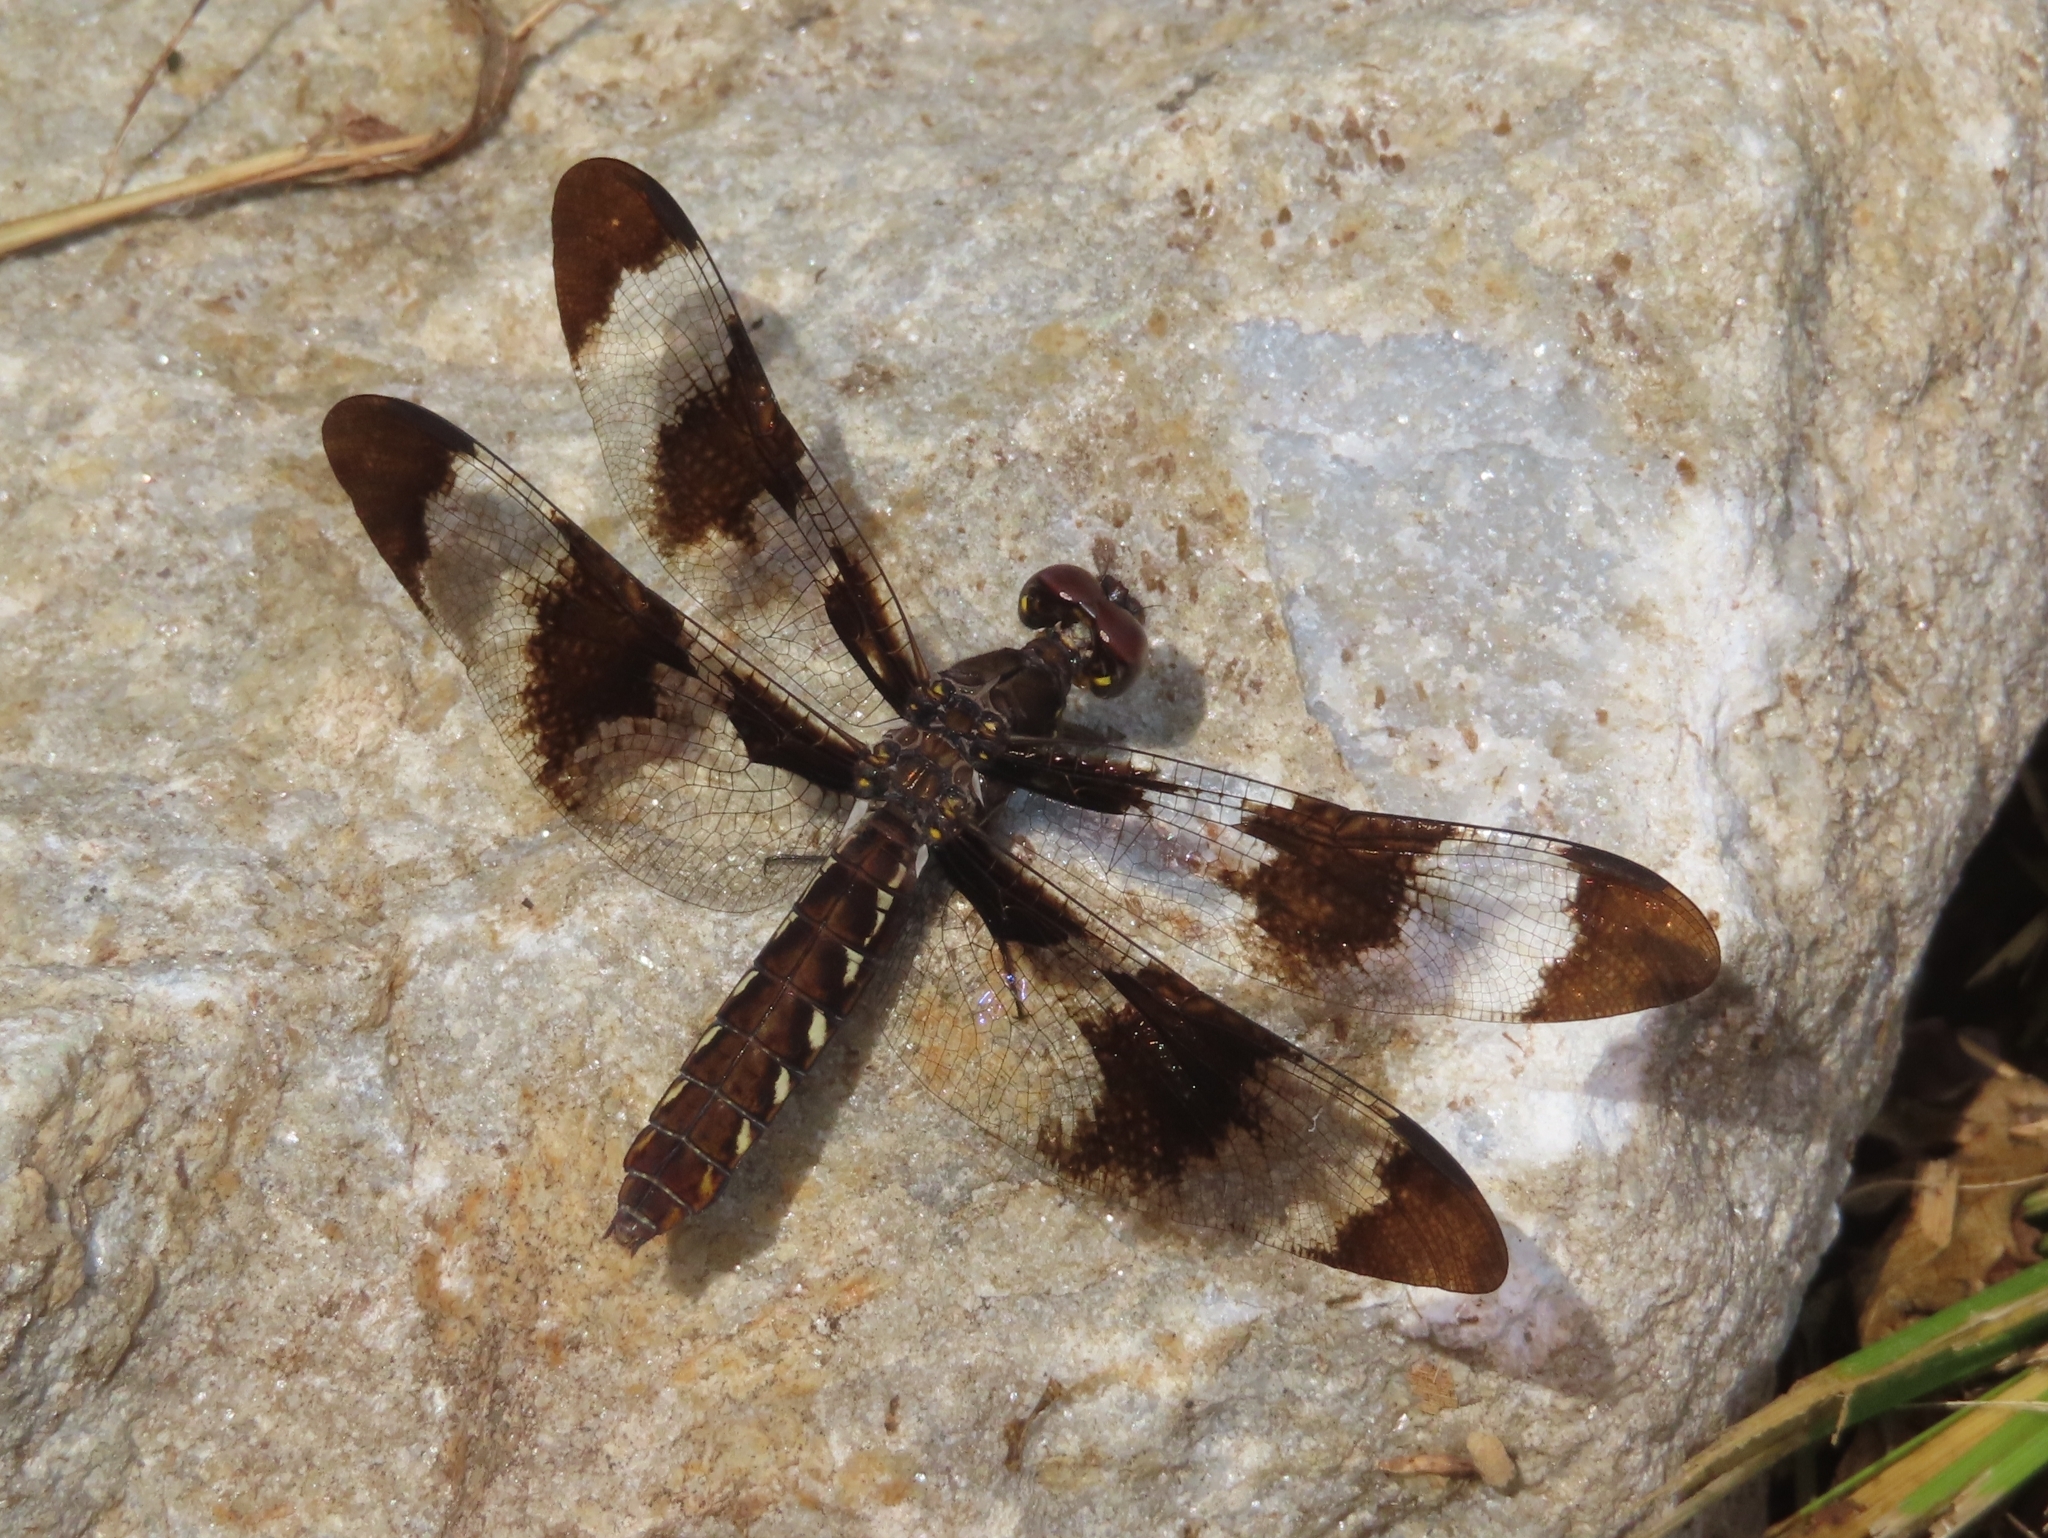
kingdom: Animalia
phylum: Arthropoda
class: Insecta
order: Odonata
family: Libellulidae
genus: Plathemis
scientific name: Plathemis lydia
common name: Common whitetail
